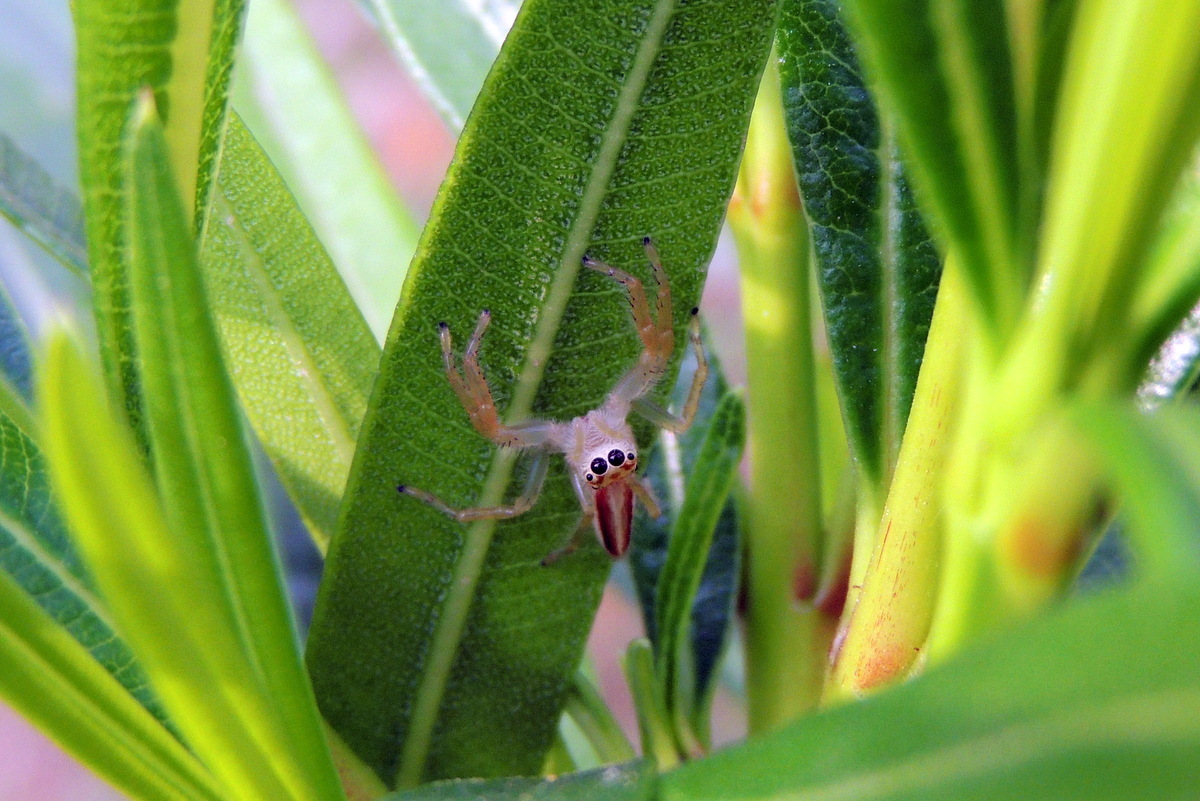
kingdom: Animalia
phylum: Arthropoda
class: Arachnida
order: Araneae
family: Salticidae
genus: Telamonia
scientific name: Telamonia dimidiata
